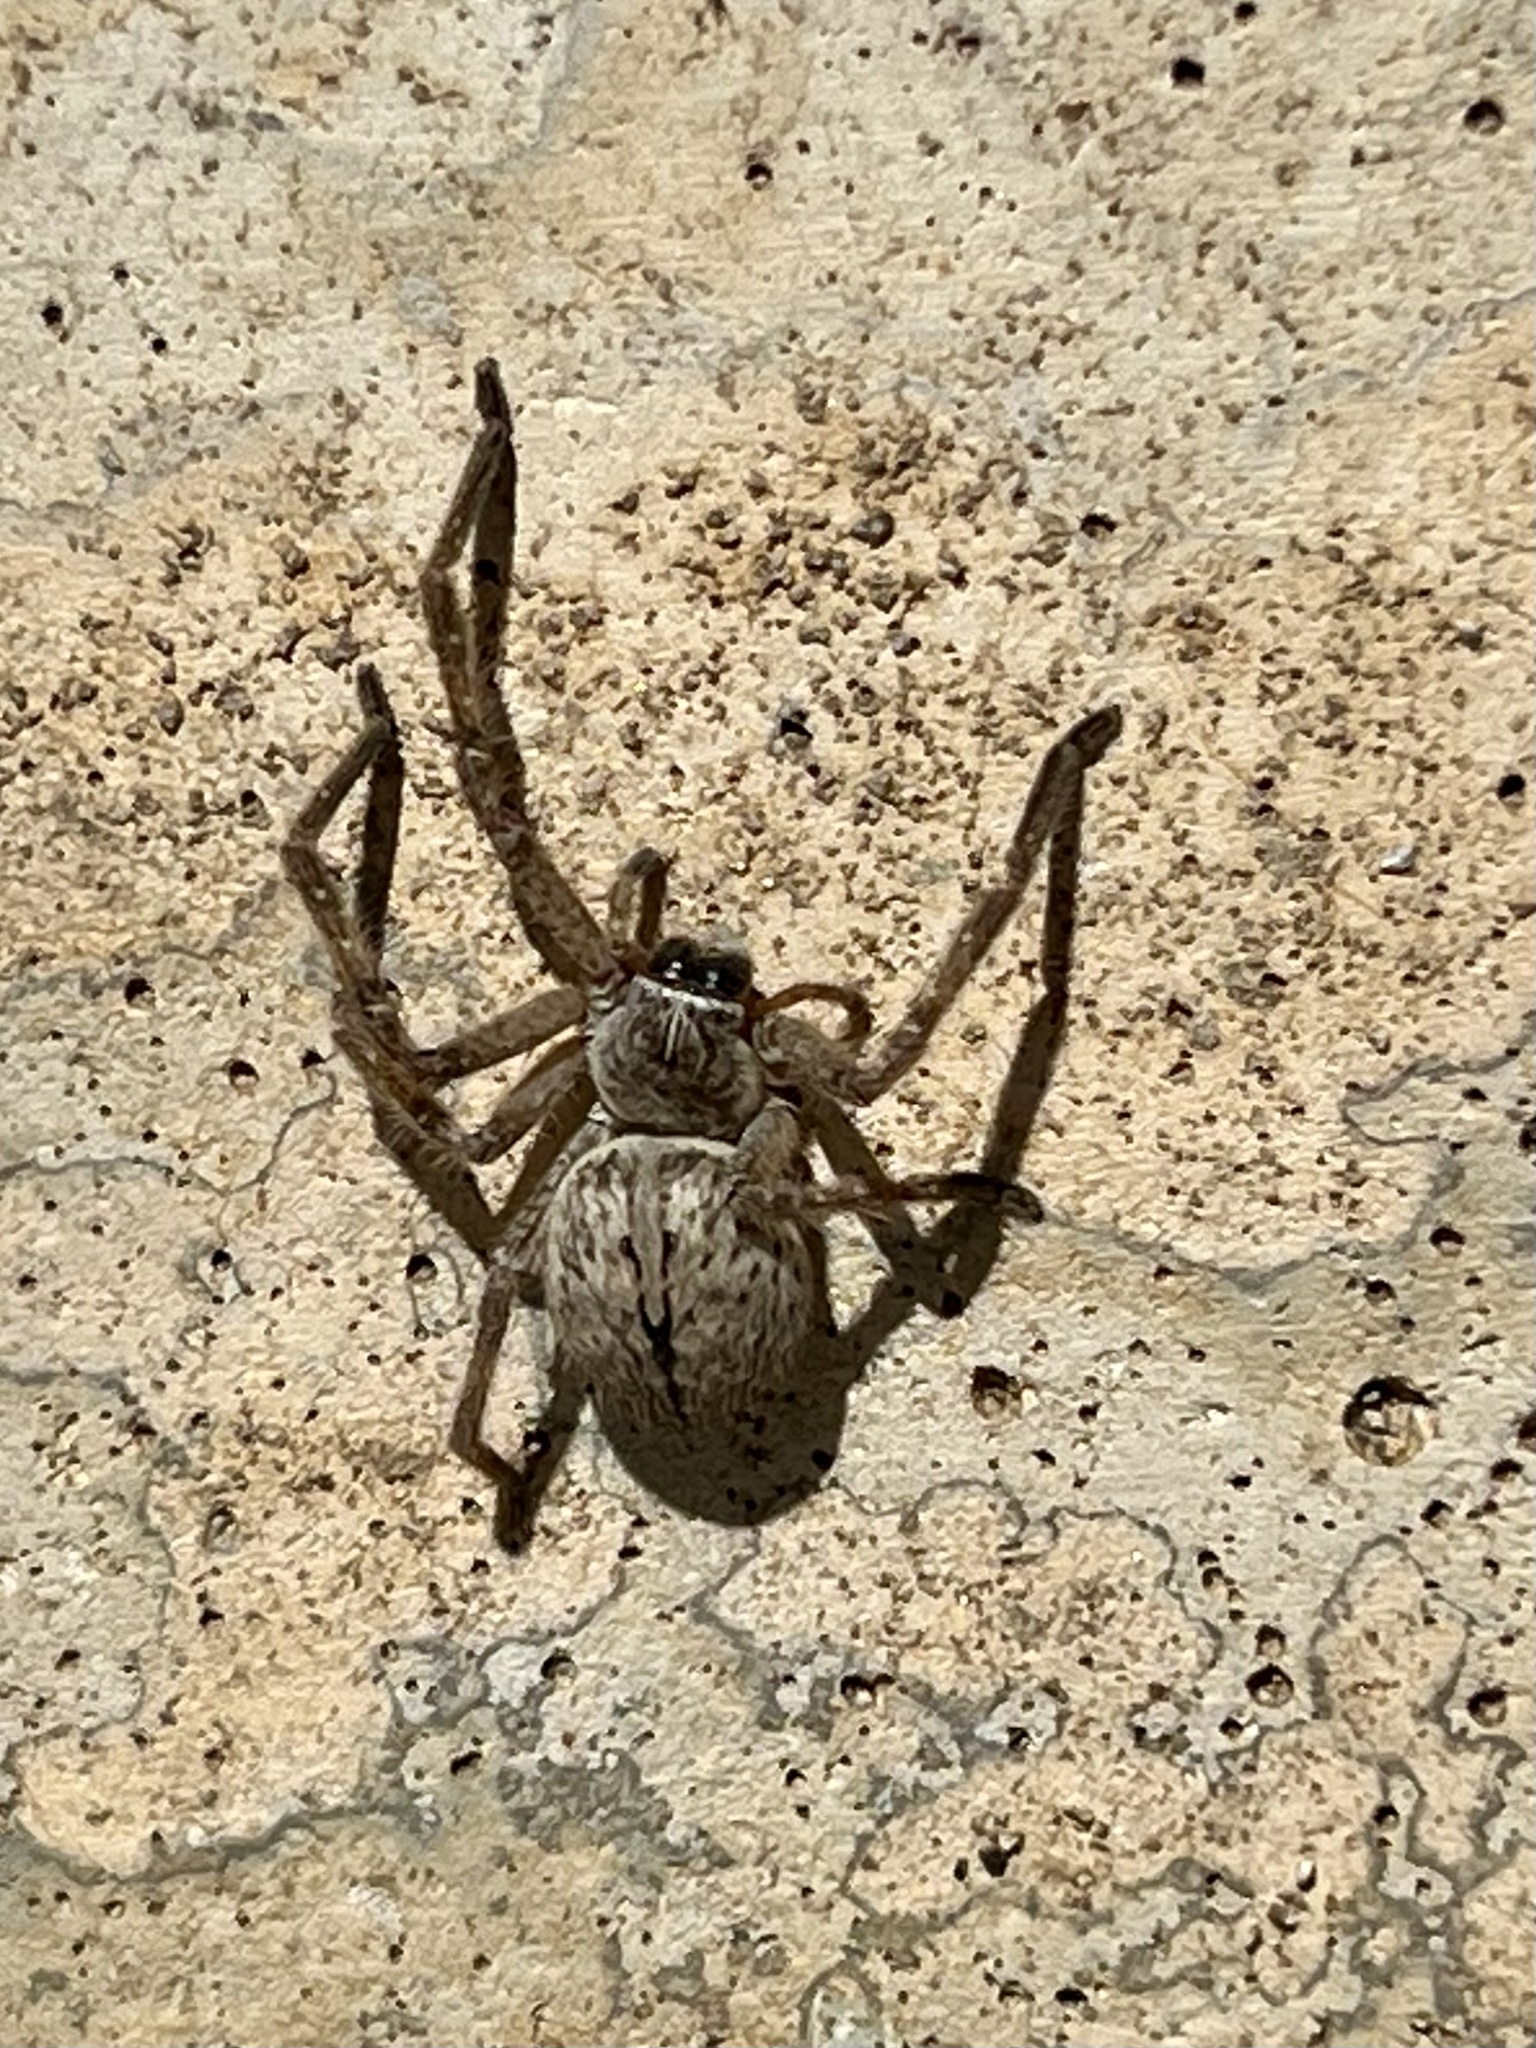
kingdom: Animalia
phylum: Arthropoda
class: Arachnida
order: Araneae
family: Sparassidae
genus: Olios
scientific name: Olios giganteus
